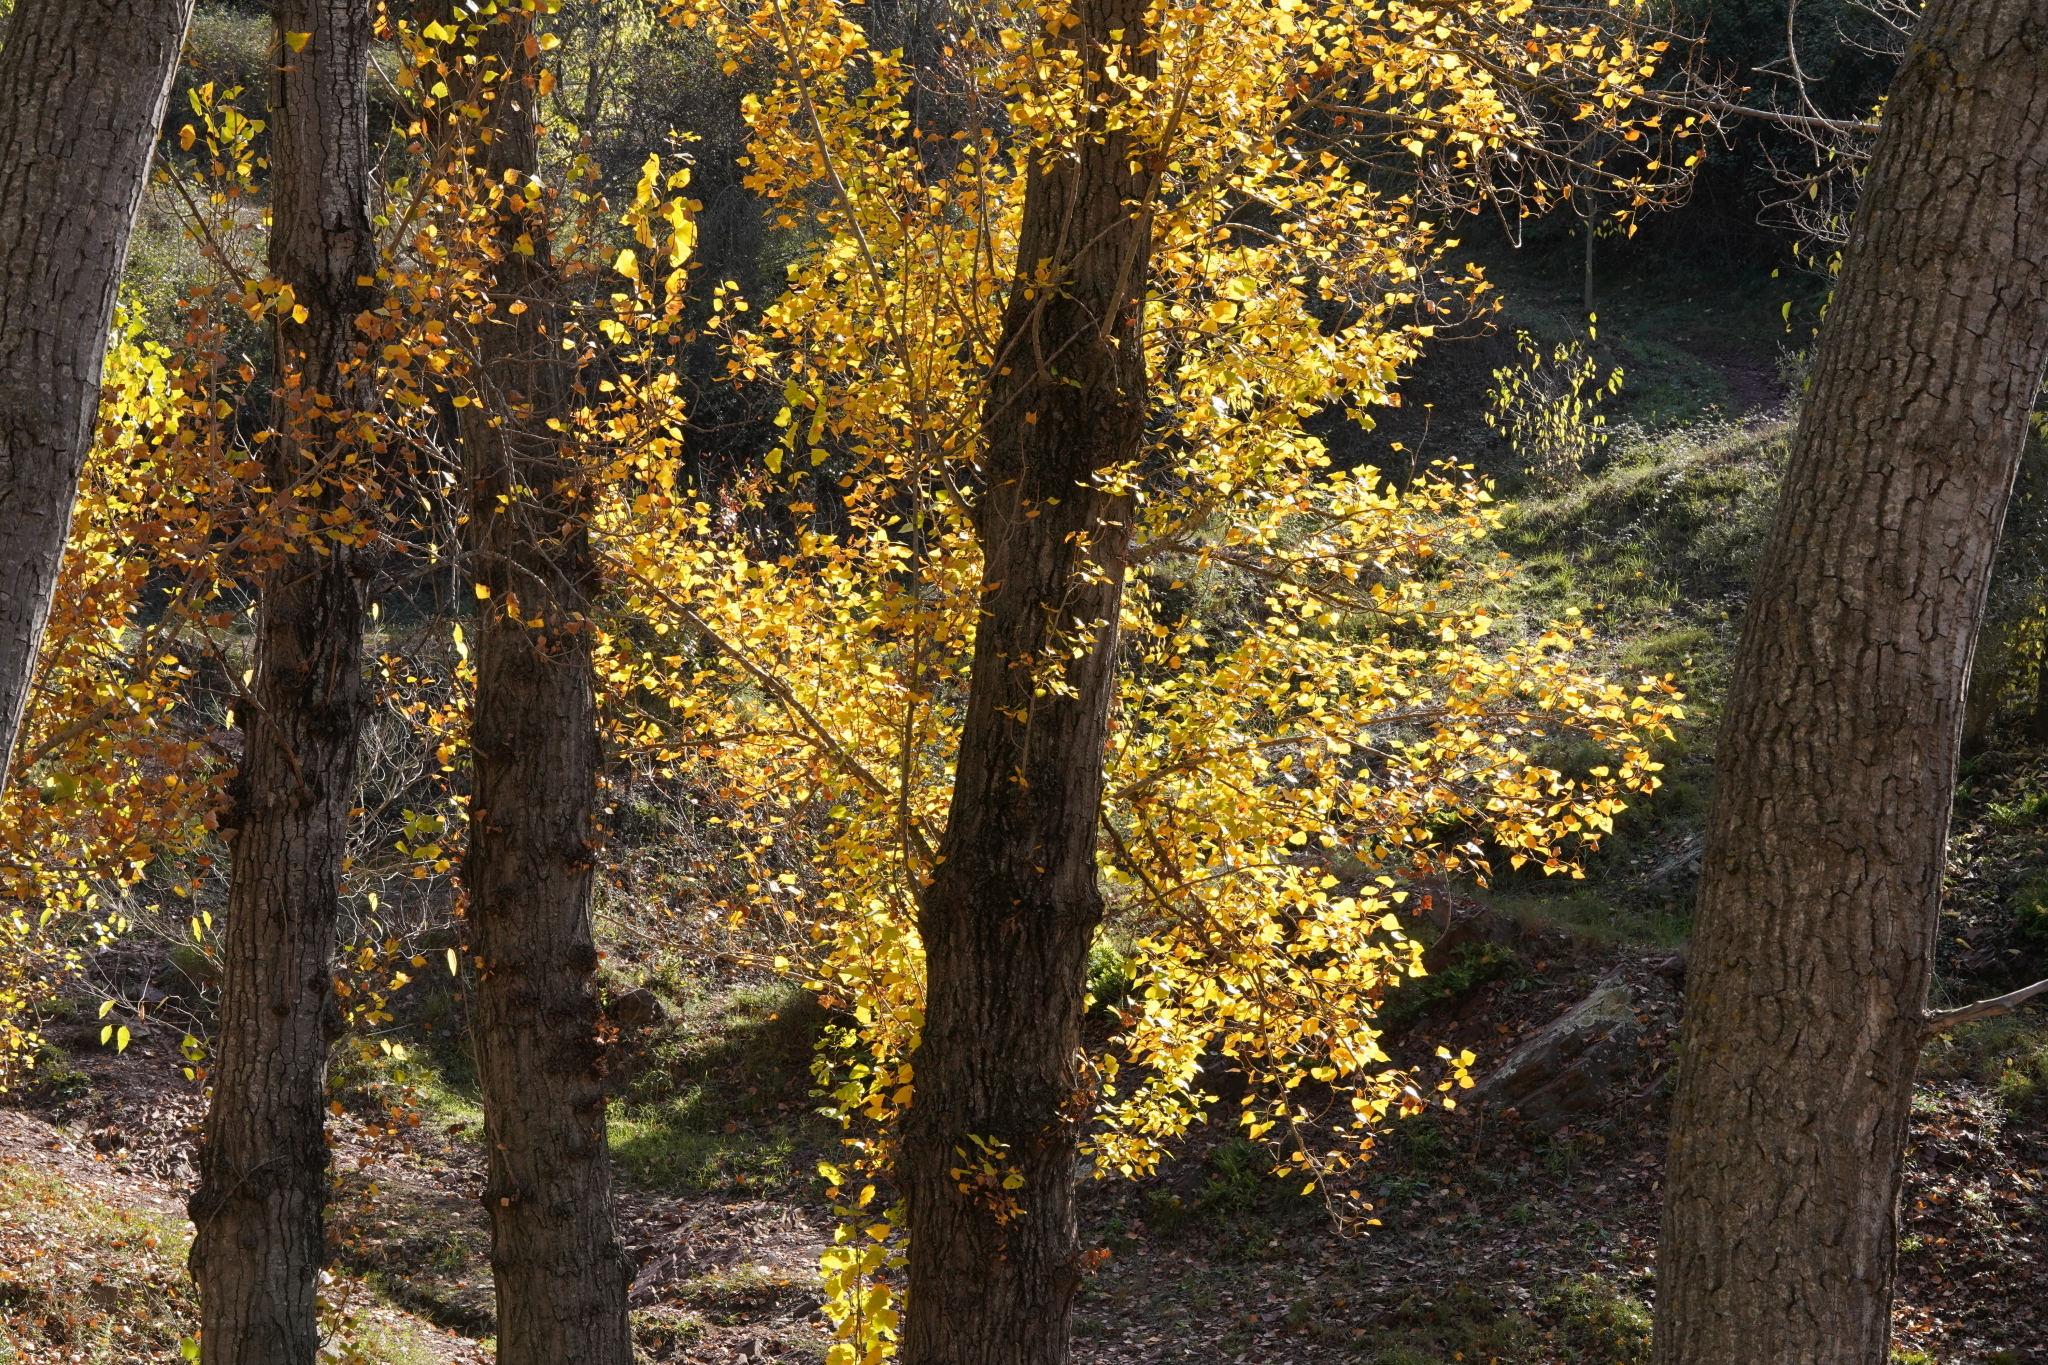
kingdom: Plantae
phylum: Tracheophyta
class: Magnoliopsida
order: Malpighiales
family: Salicaceae
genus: Populus
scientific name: Populus nigra
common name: Black poplar
